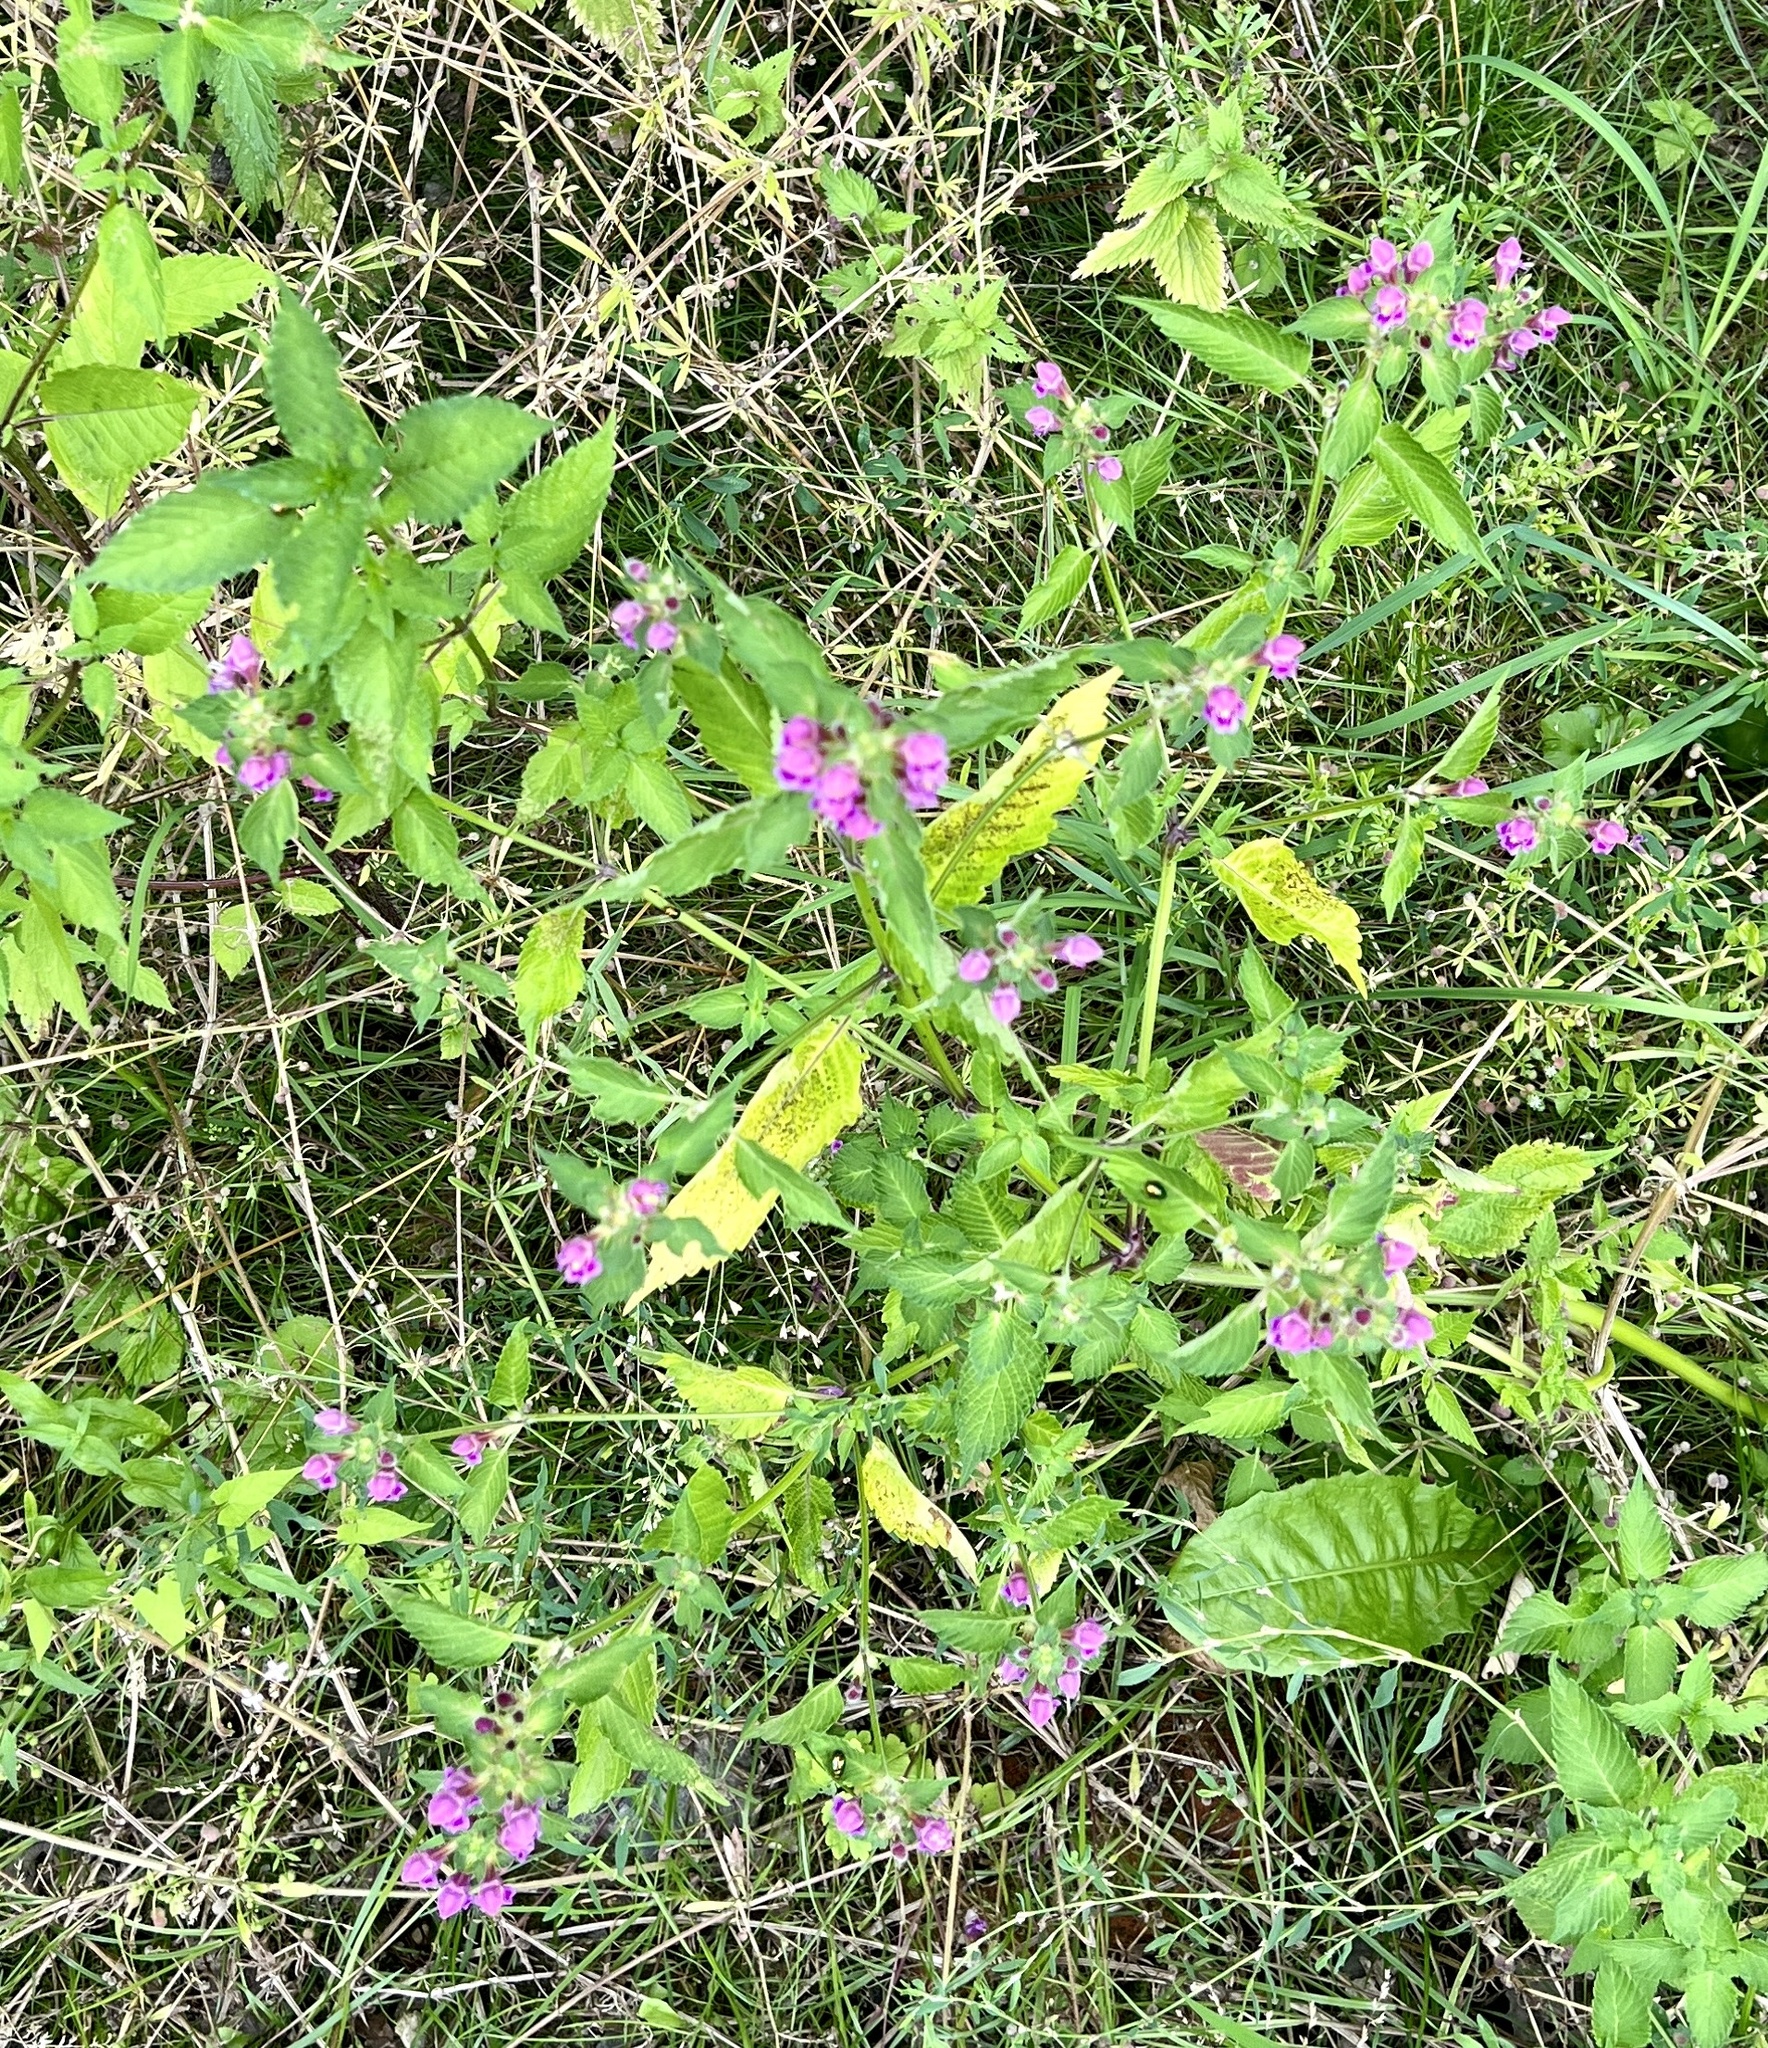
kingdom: Plantae
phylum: Tracheophyta
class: Magnoliopsida
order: Lamiales
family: Lamiaceae
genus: Galeopsis
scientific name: Galeopsis pubescens
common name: Downy hemp-nettle
